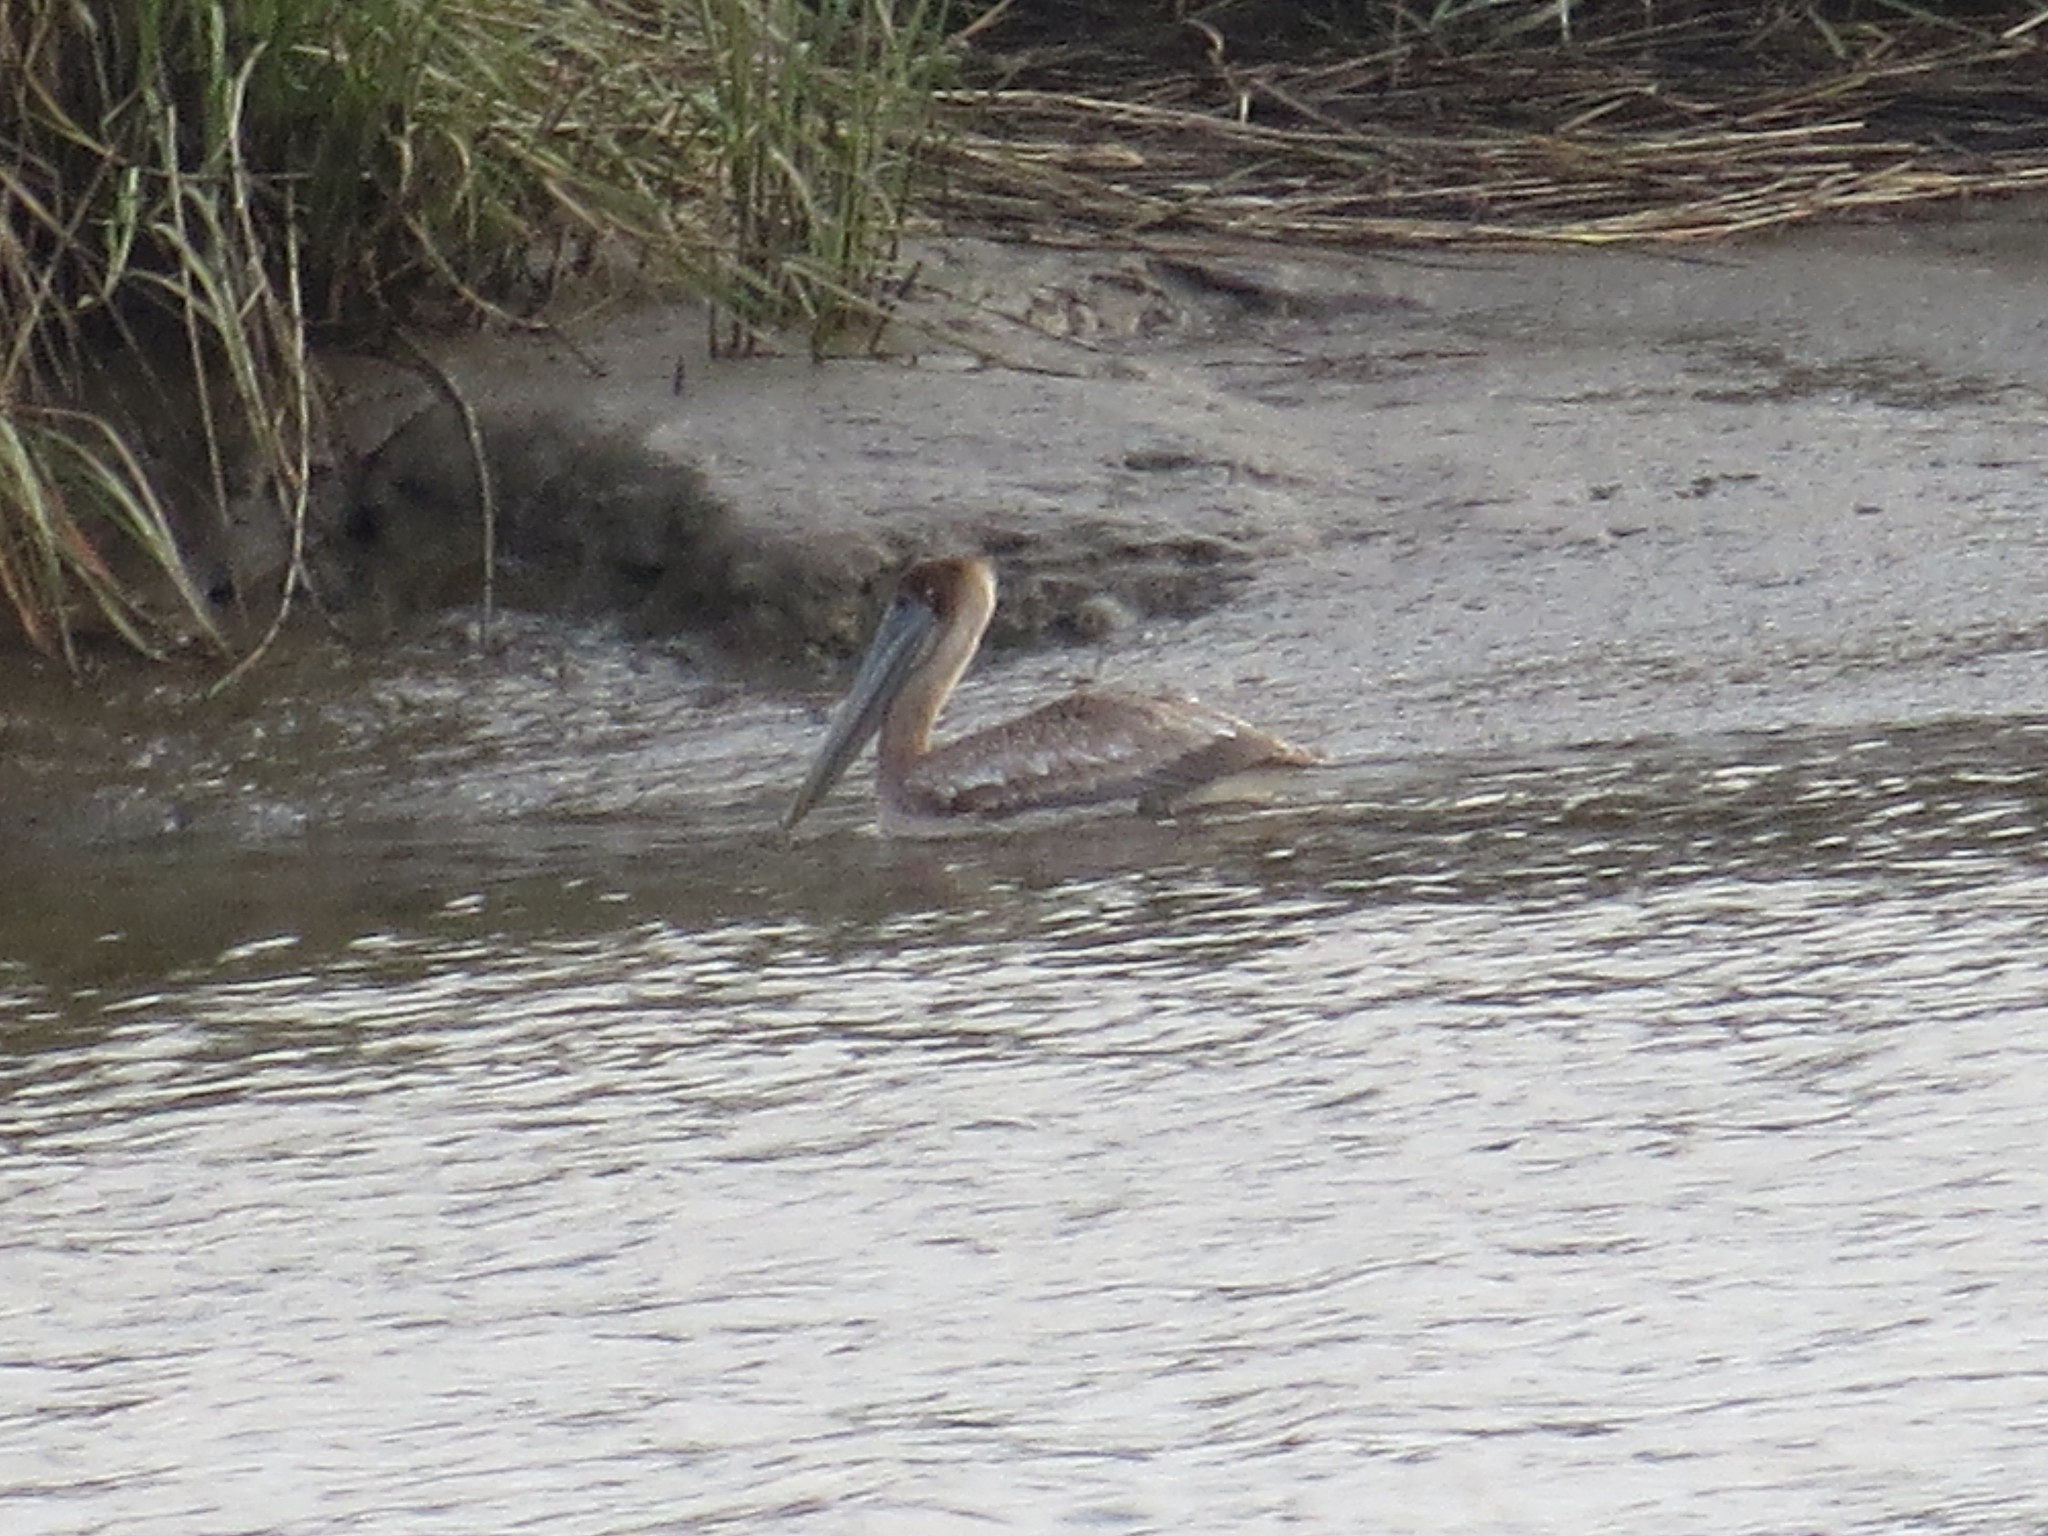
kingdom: Animalia
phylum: Chordata
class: Aves
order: Pelecaniformes
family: Pelecanidae
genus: Pelecanus
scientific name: Pelecanus occidentalis
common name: Brown pelican
